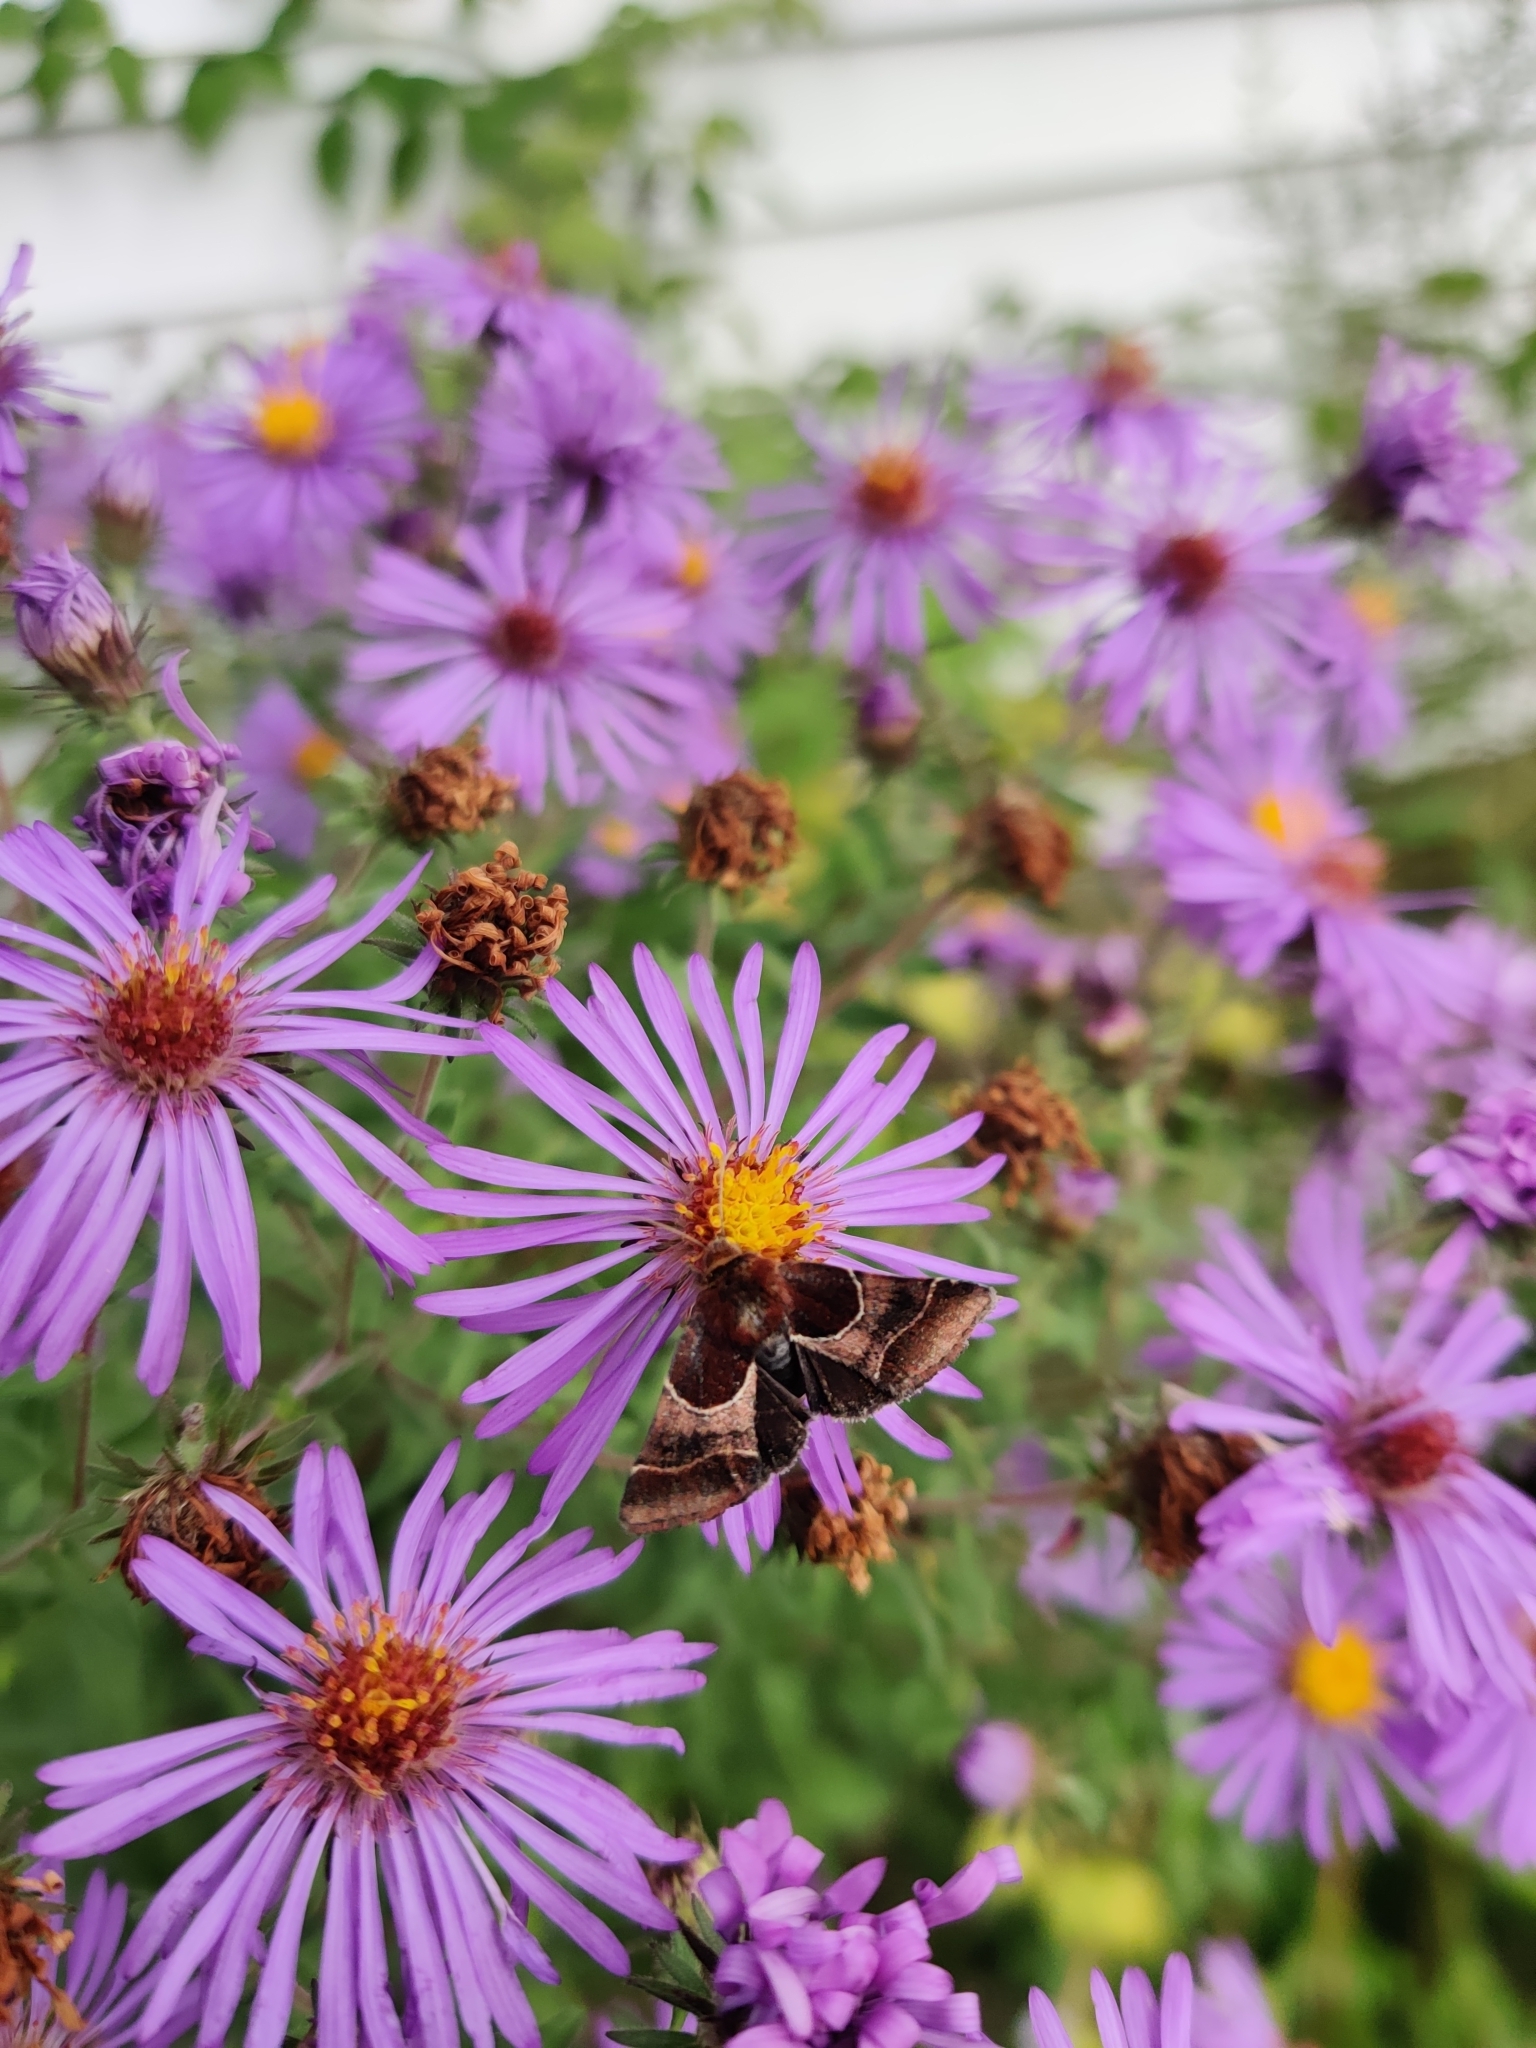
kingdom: Animalia
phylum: Arthropoda
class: Insecta
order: Lepidoptera
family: Noctuidae
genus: Schinia
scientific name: Schinia arcigera
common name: Arcigera flower moth
